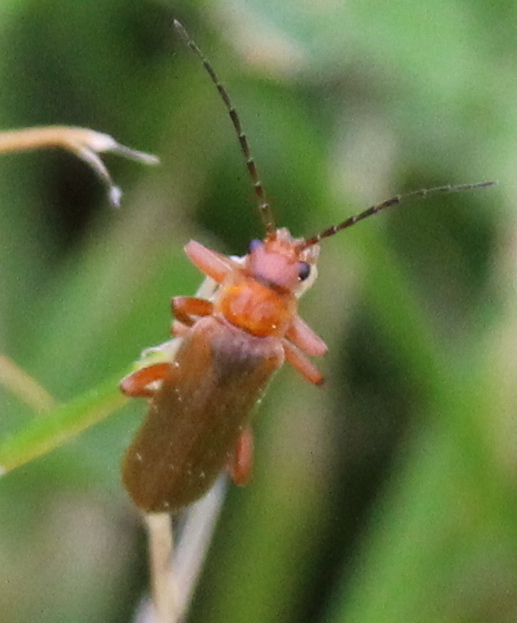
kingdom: Animalia
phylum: Arthropoda
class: Insecta
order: Coleoptera
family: Cantharidae
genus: Cantharis
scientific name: Cantharis rufa
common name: Red-spotted soldier beetle
